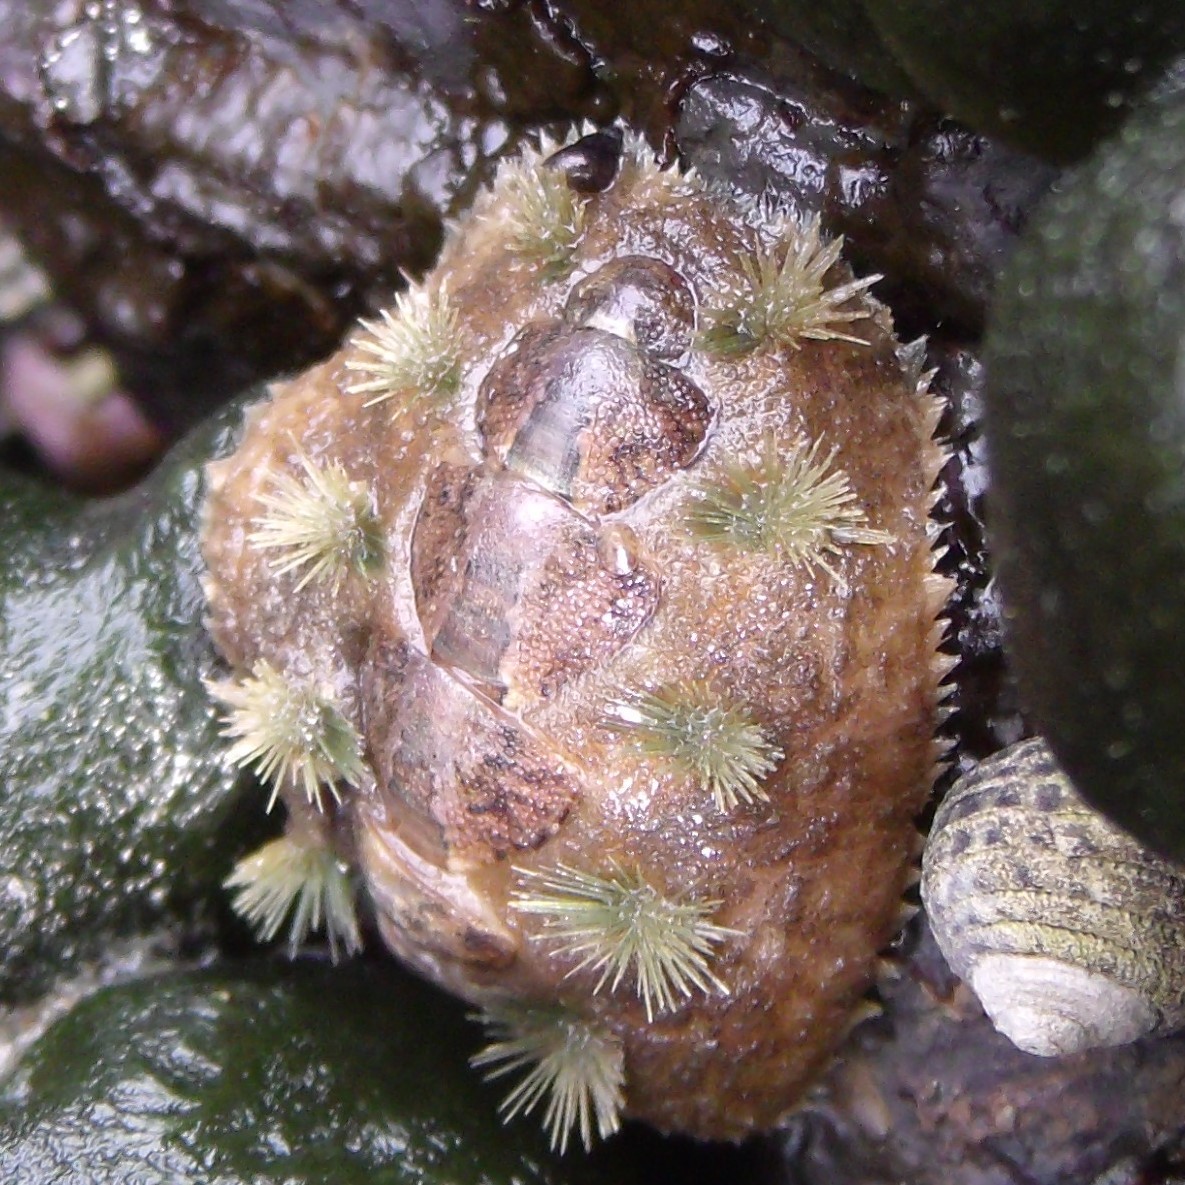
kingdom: Animalia
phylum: Mollusca
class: Polyplacophora
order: Chitonida
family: Acanthochitonidae
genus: Acanthochitona
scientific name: Acanthochitona zelandica
